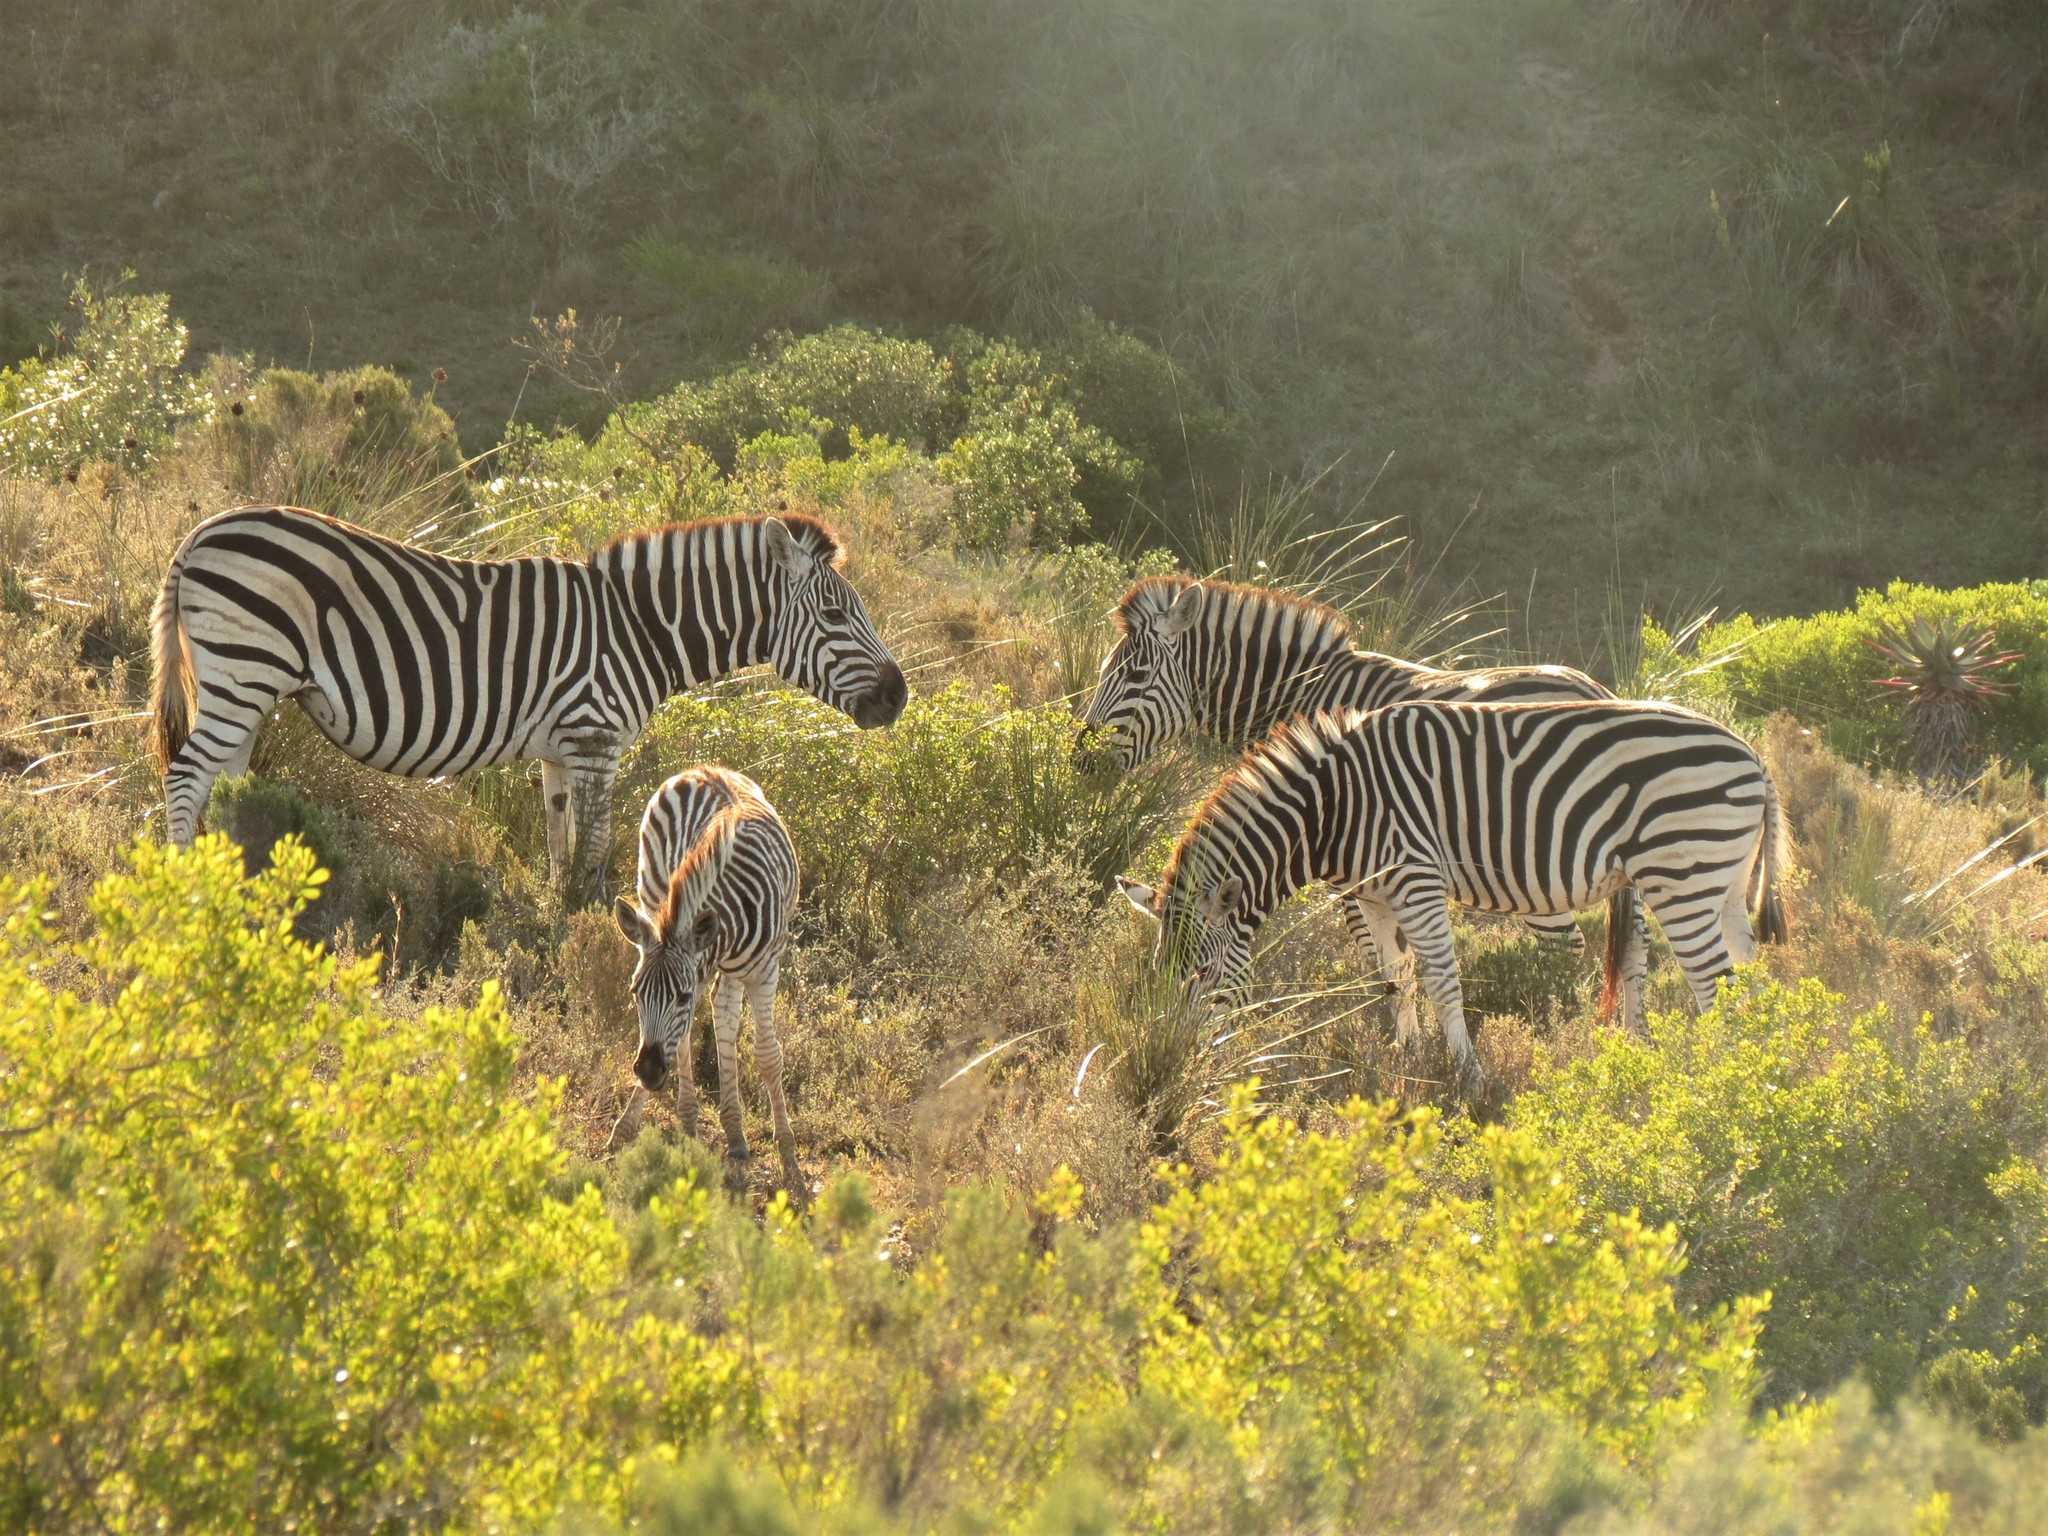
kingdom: Animalia
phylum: Chordata
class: Mammalia
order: Perissodactyla
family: Equidae
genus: Equus
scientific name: Equus quagga
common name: Plains zebra
